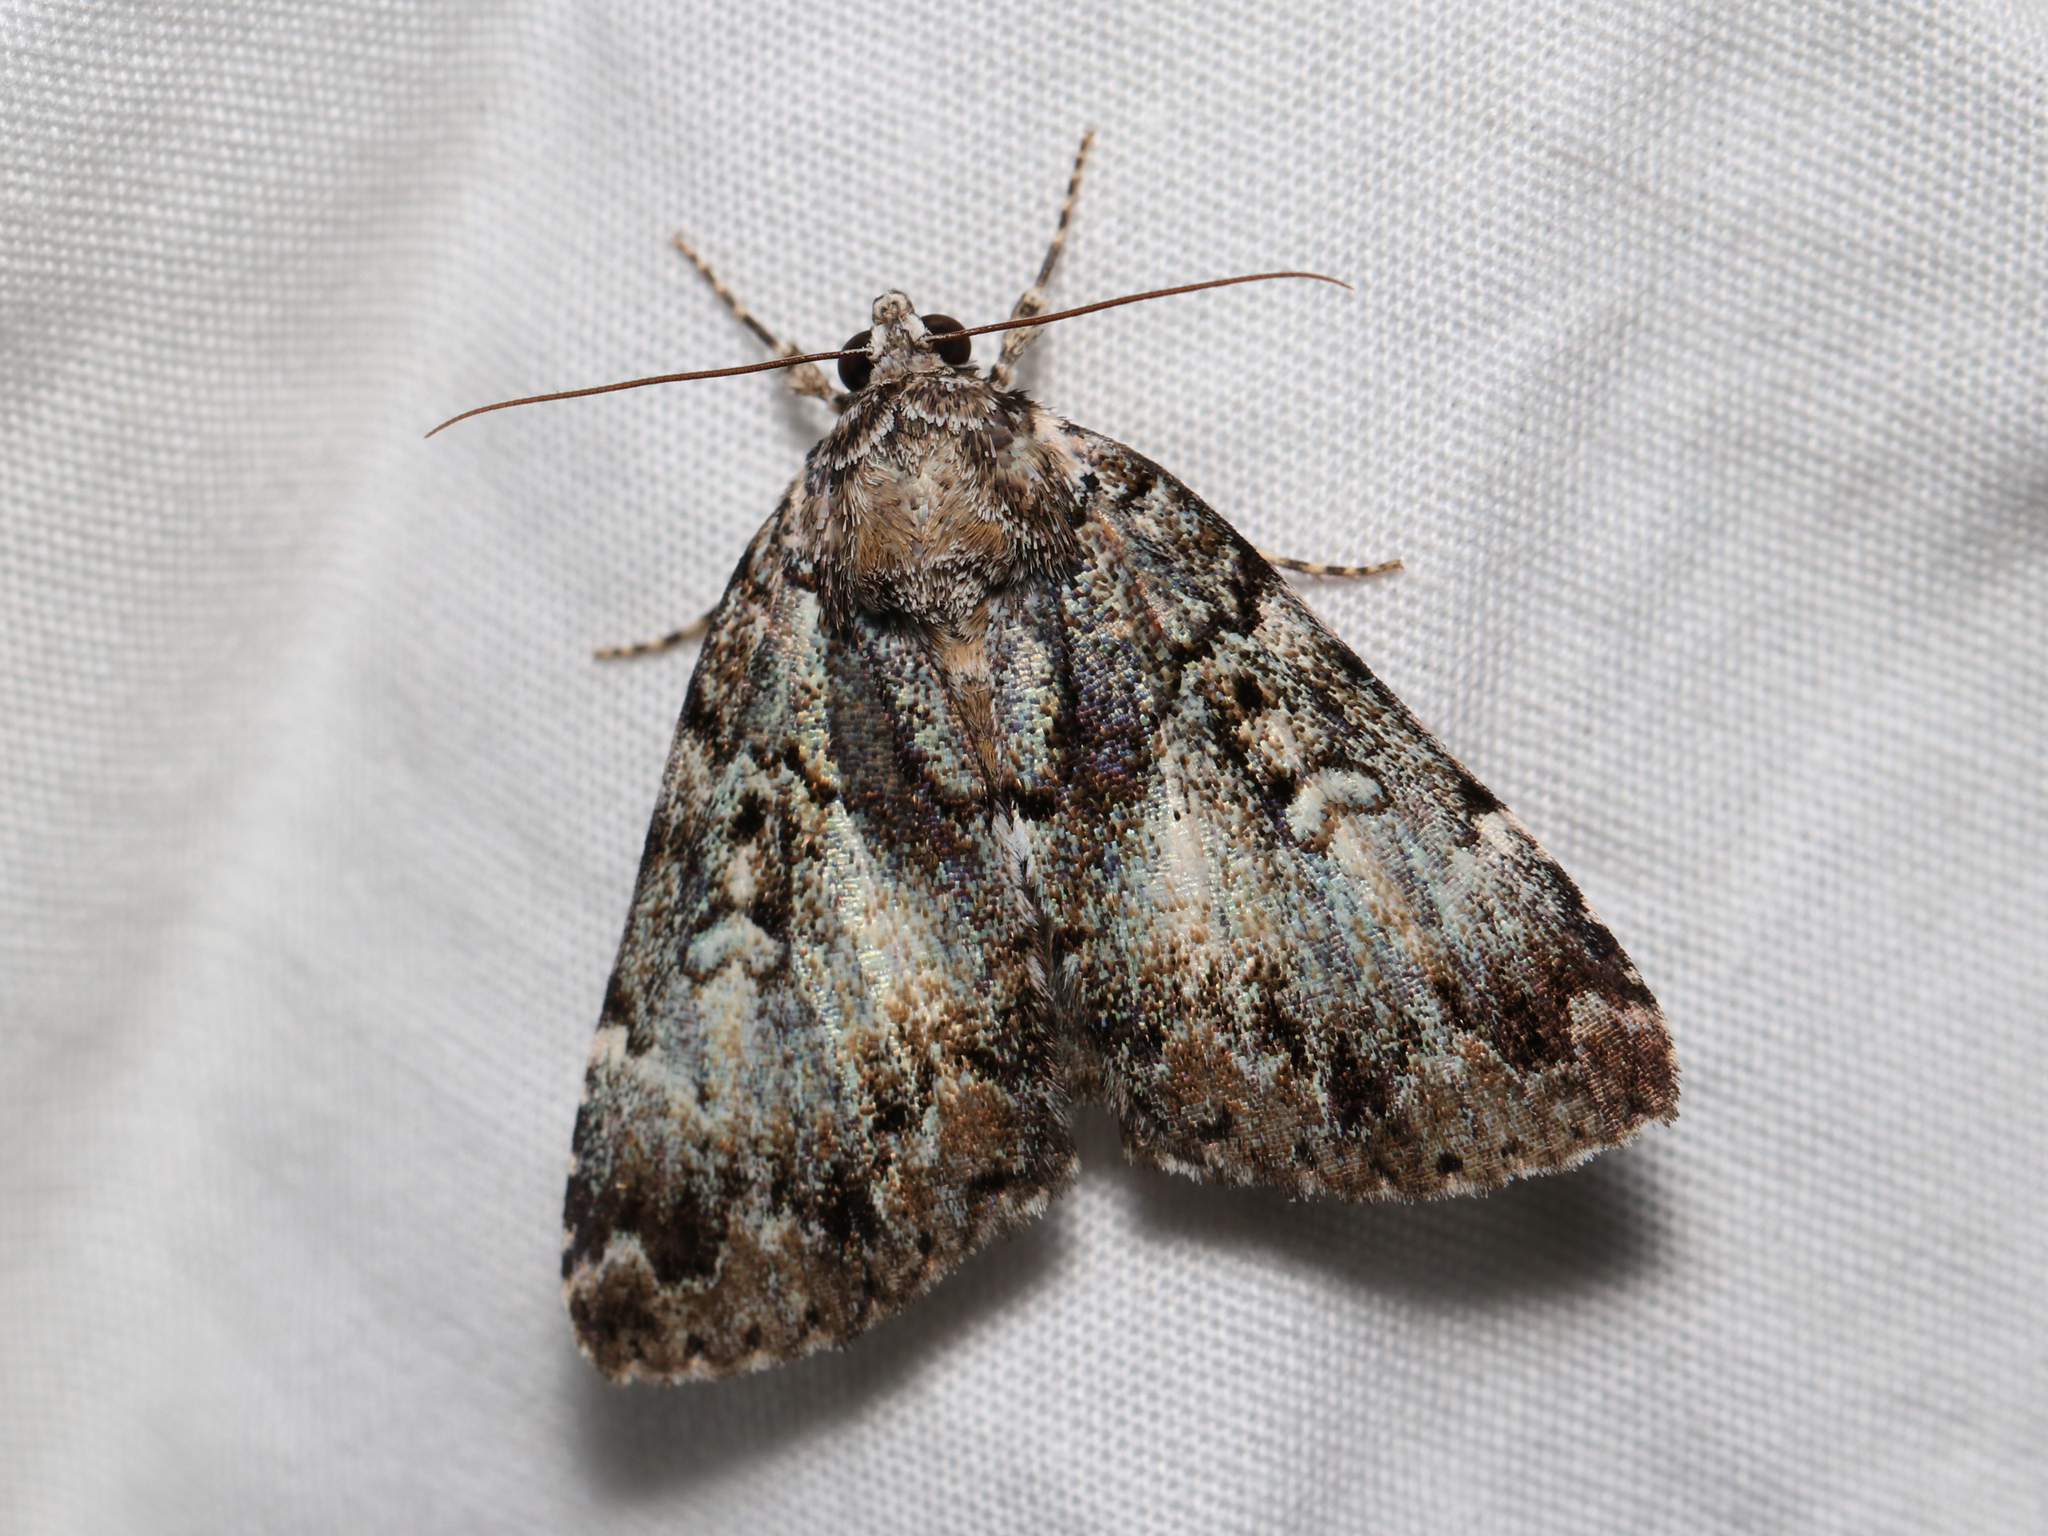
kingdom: Animalia
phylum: Arthropoda
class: Insecta
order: Lepidoptera
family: Erebidae
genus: Allotria
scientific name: Allotria elonympha
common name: False underwing
